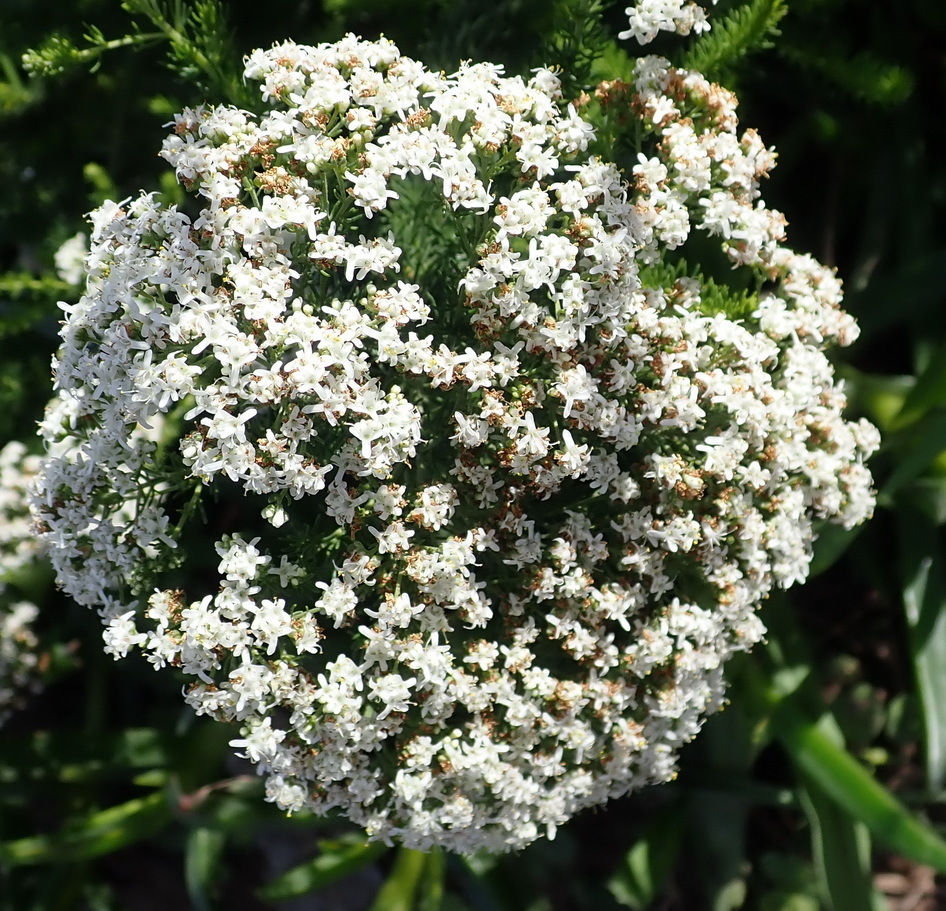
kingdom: Plantae
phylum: Tracheophyta
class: Magnoliopsida
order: Lamiales
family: Scrophulariaceae
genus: Selago
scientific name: Selago corymbosa
